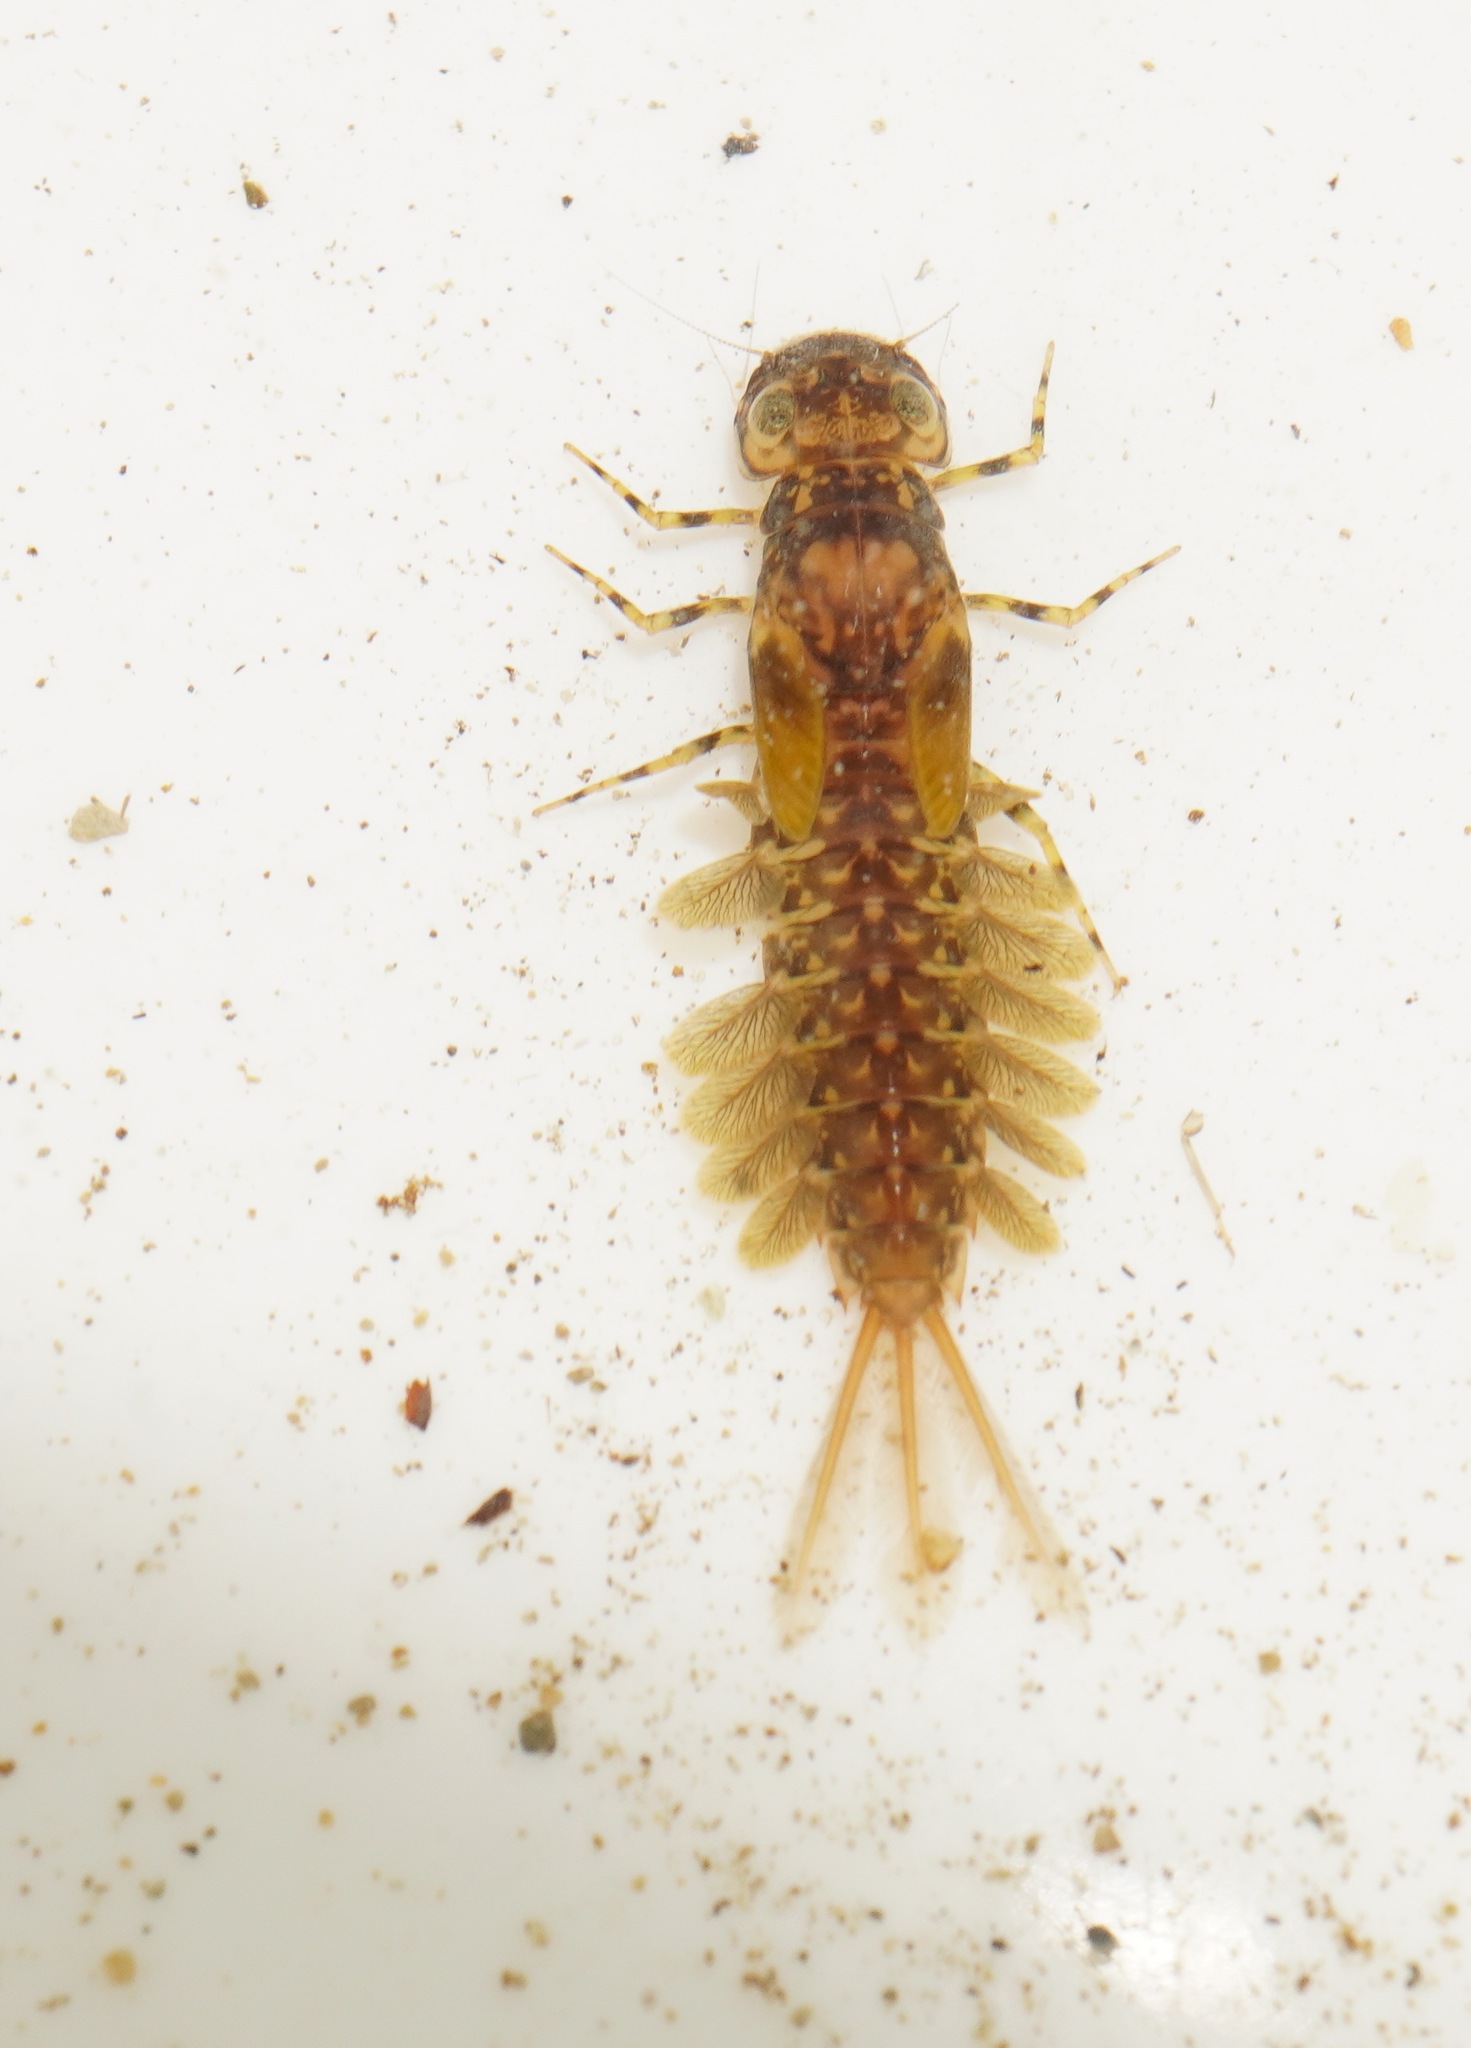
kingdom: Animalia
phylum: Arthropoda
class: Insecta
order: Ephemeroptera
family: Ameletopsidae
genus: Ameletopsis
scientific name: Ameletopsis perscitus
